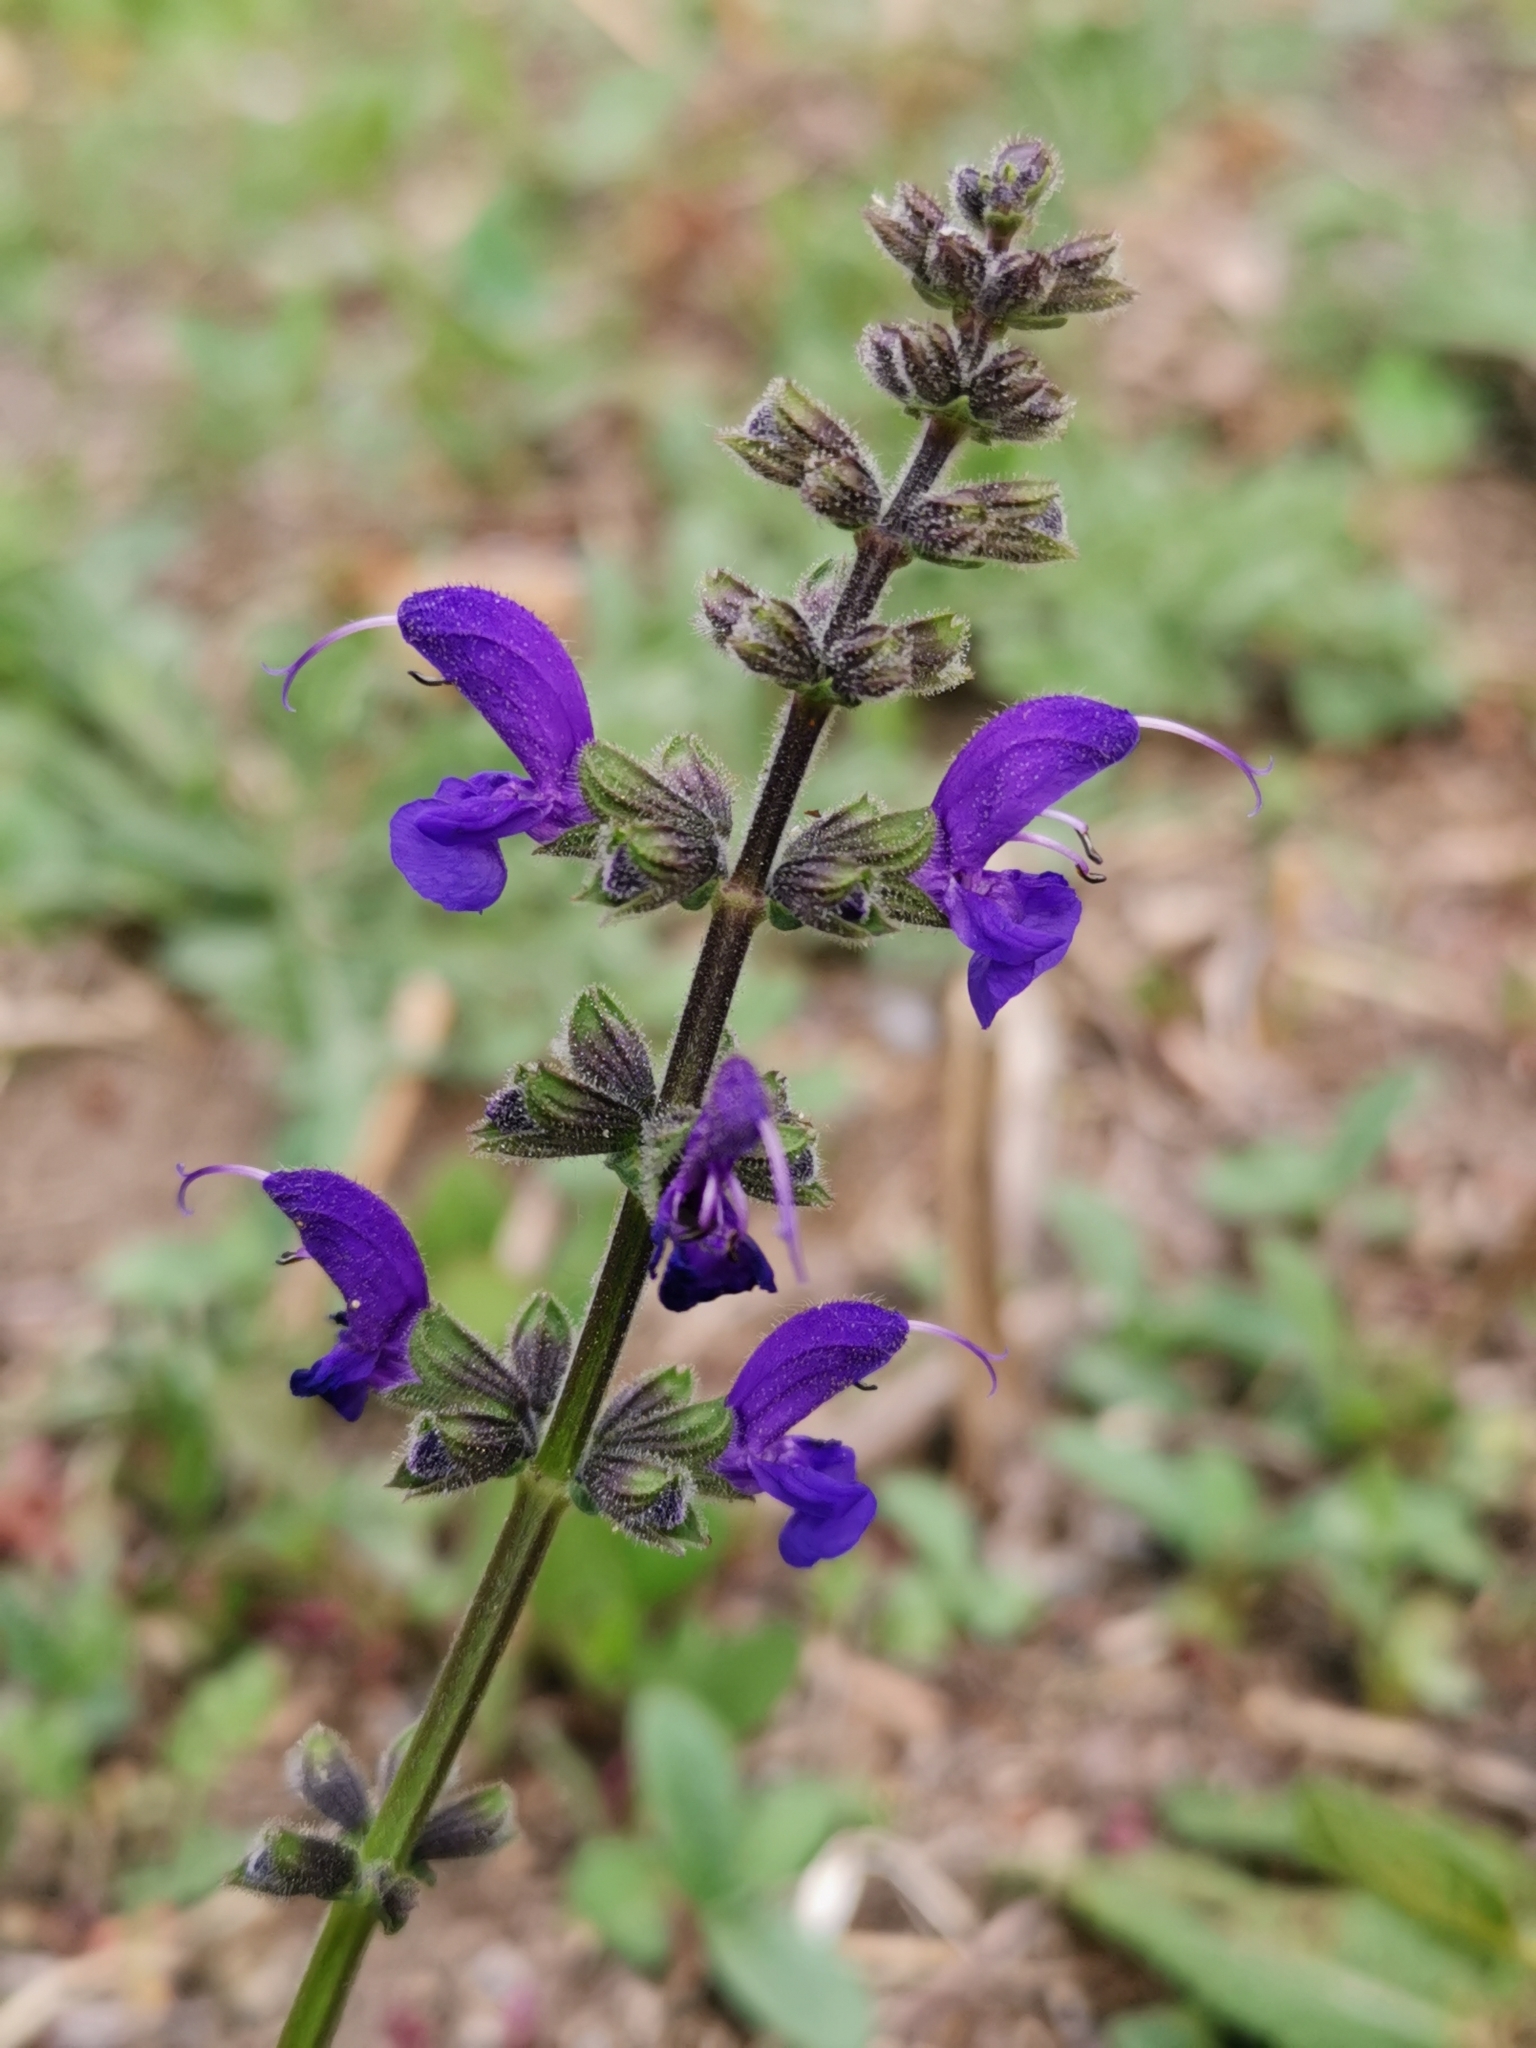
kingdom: Plantae
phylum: Tracheophyta
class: Magnoliopsida
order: Lamiales
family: Lamiaceae
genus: Salvia
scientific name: Salvia pratensis
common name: Meadow sage
